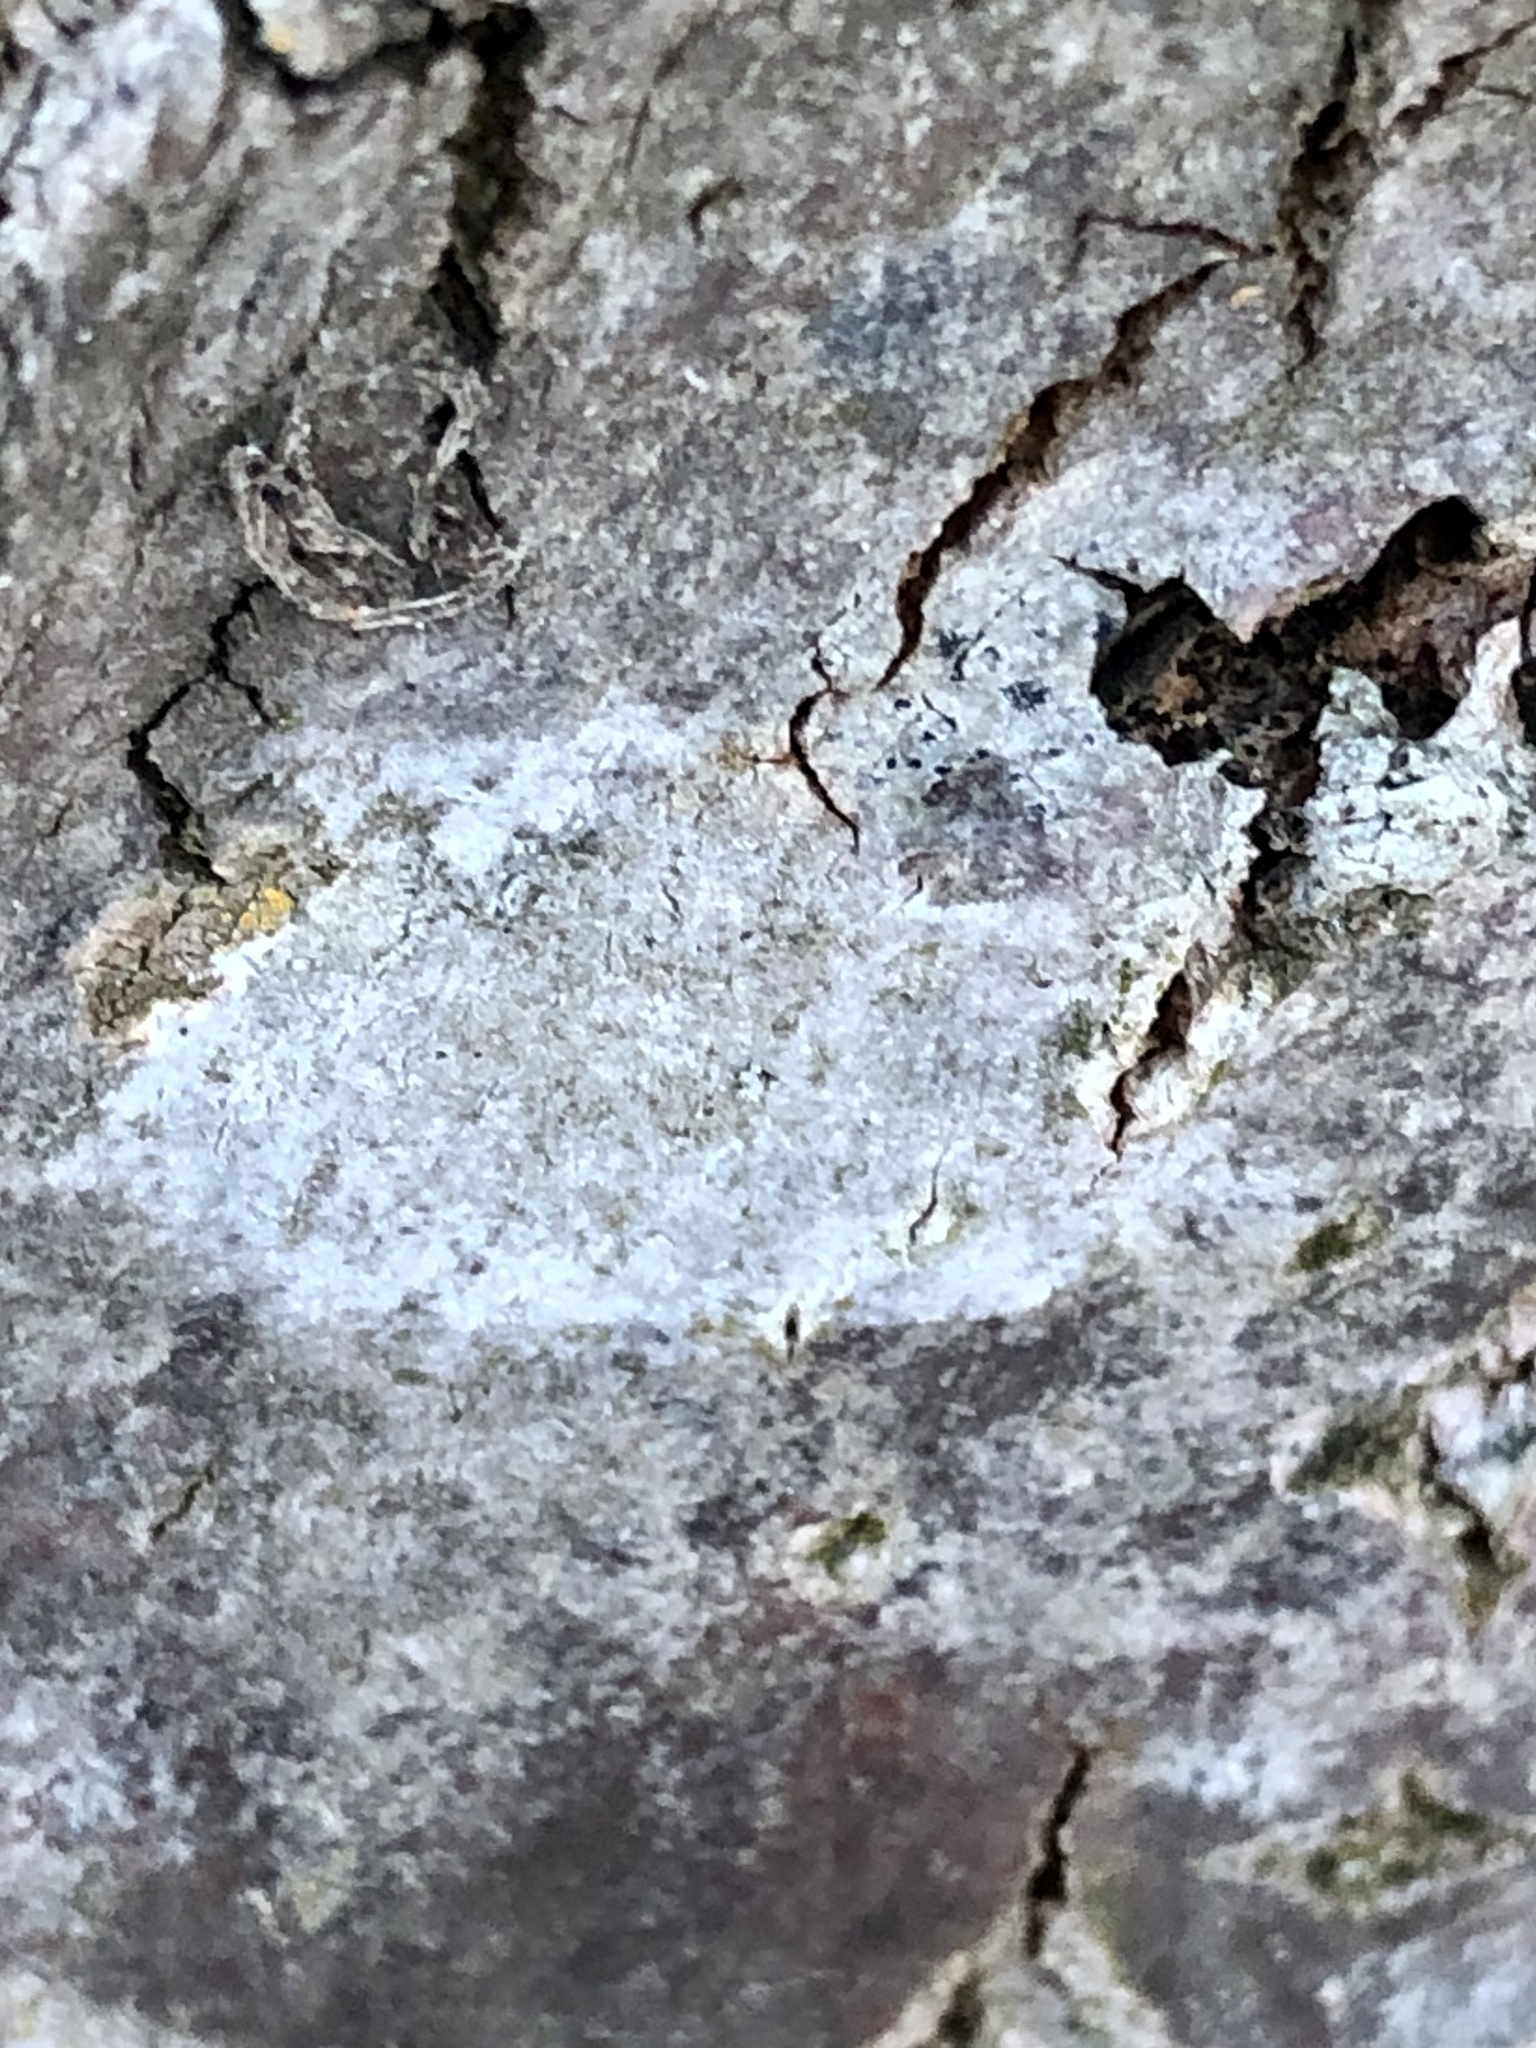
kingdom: Fungi
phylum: Ascomycota
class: Lecanoromycetes
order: Lecanorales
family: Lecanoraceae
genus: Lecanora
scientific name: Lecanora hybocarpa
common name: Bumpy rim-lichen
